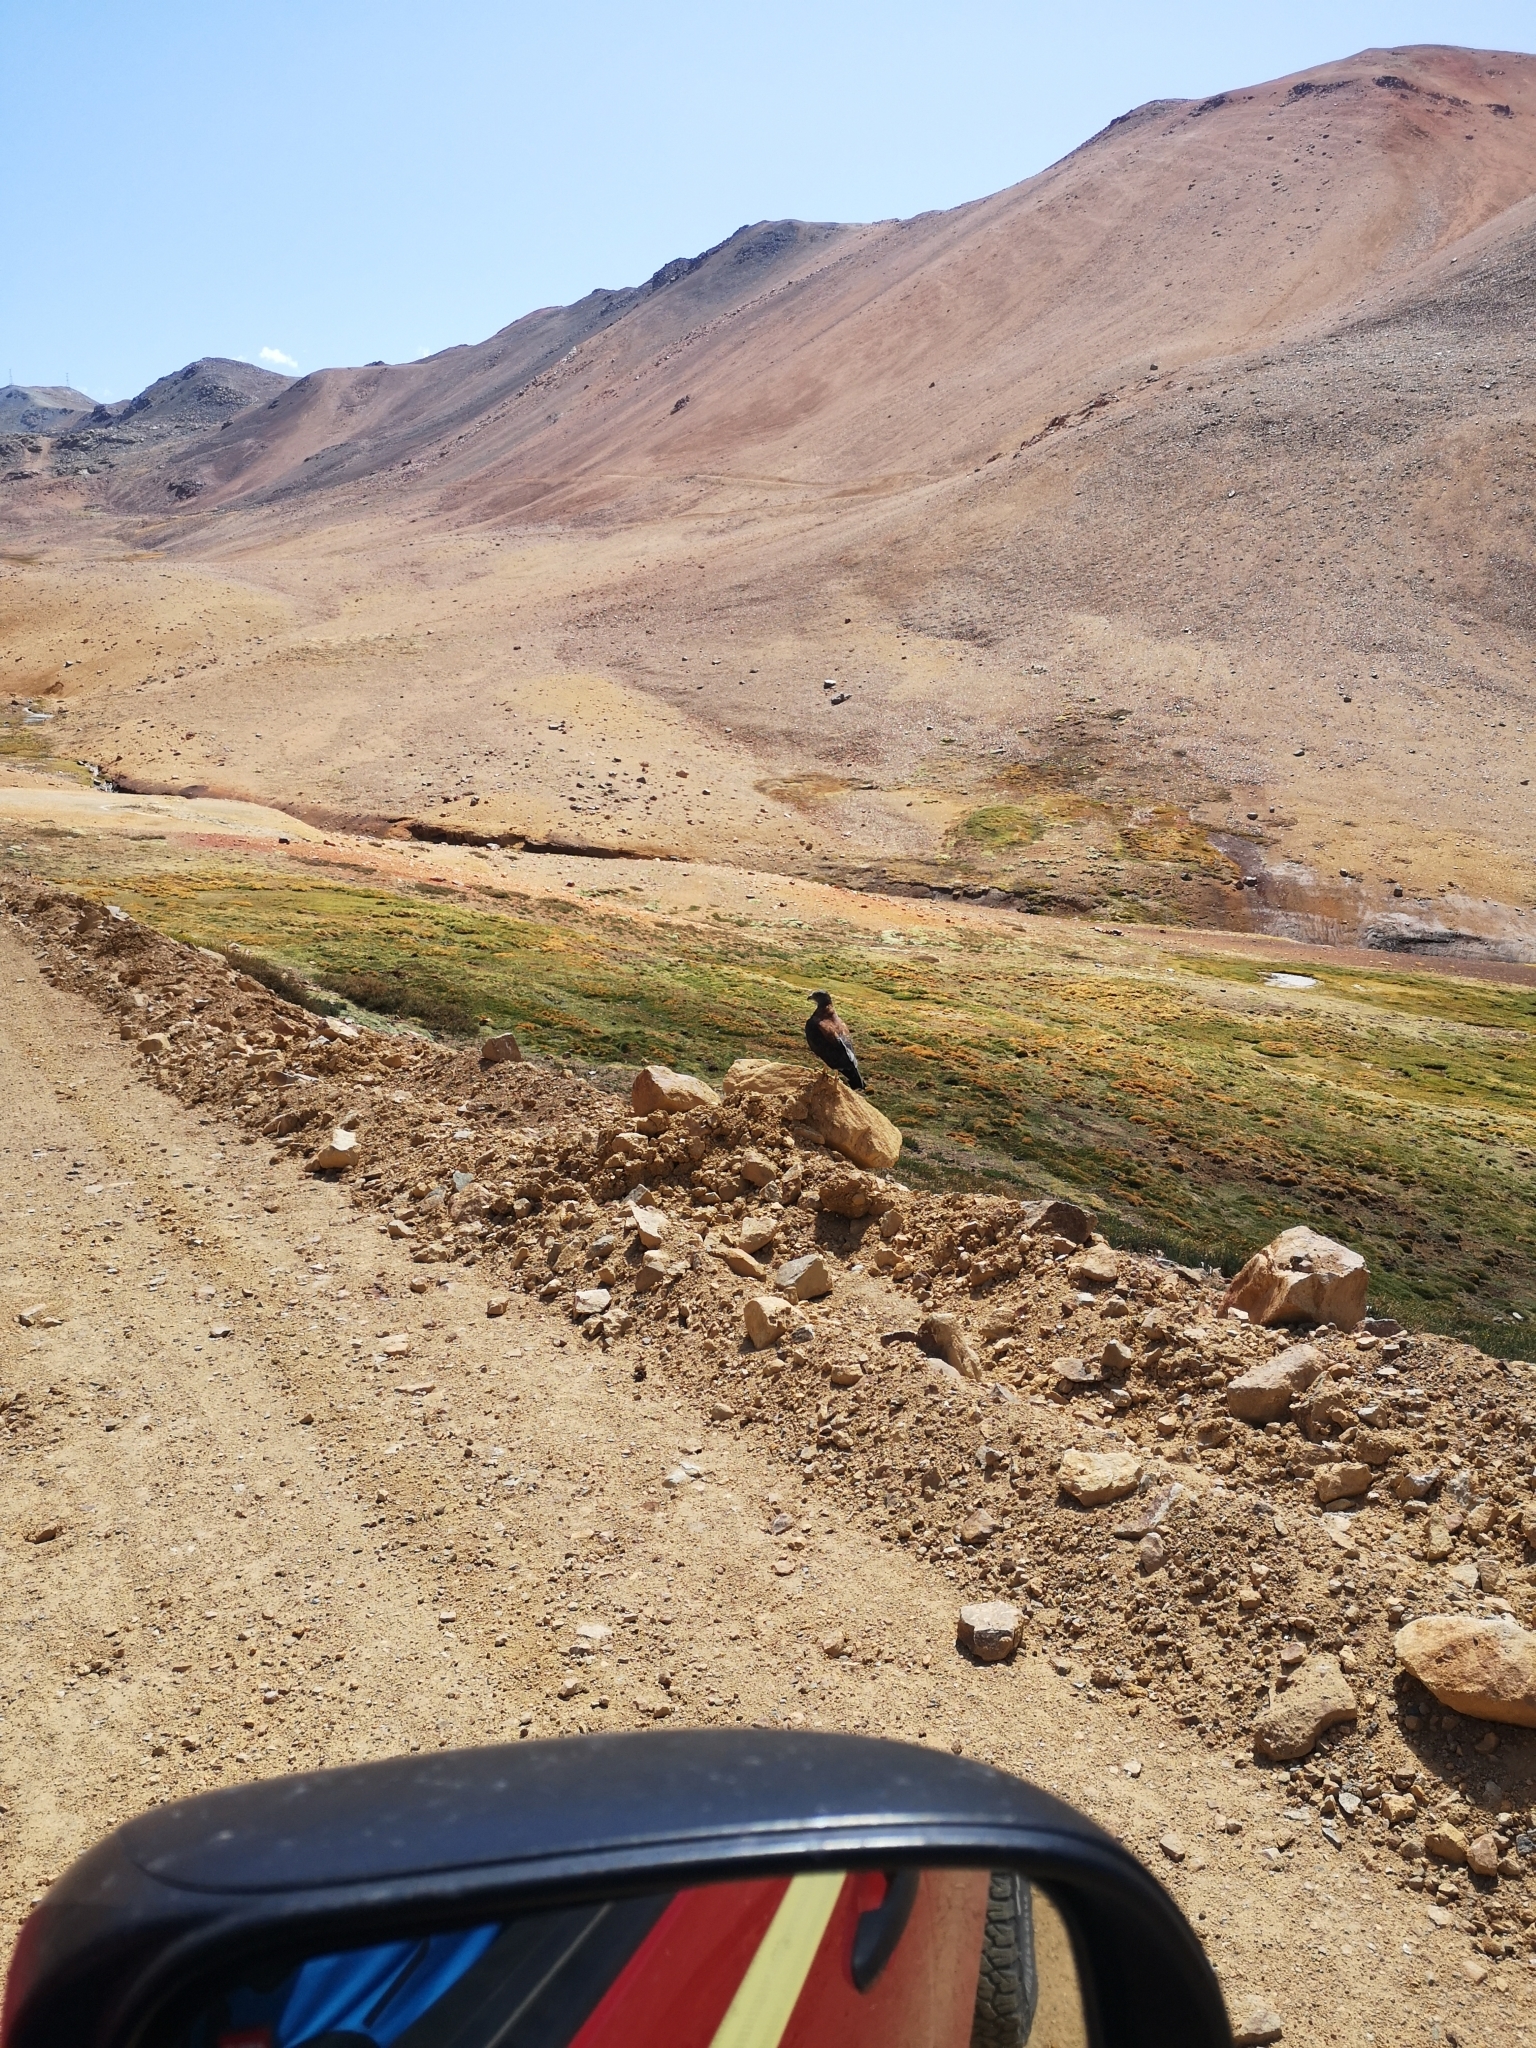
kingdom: Animalia
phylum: Chordata
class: Aves
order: Accipitriformes
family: Accipitridae
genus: Buteo
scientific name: Buteo polyosoma
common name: Variable hawk
